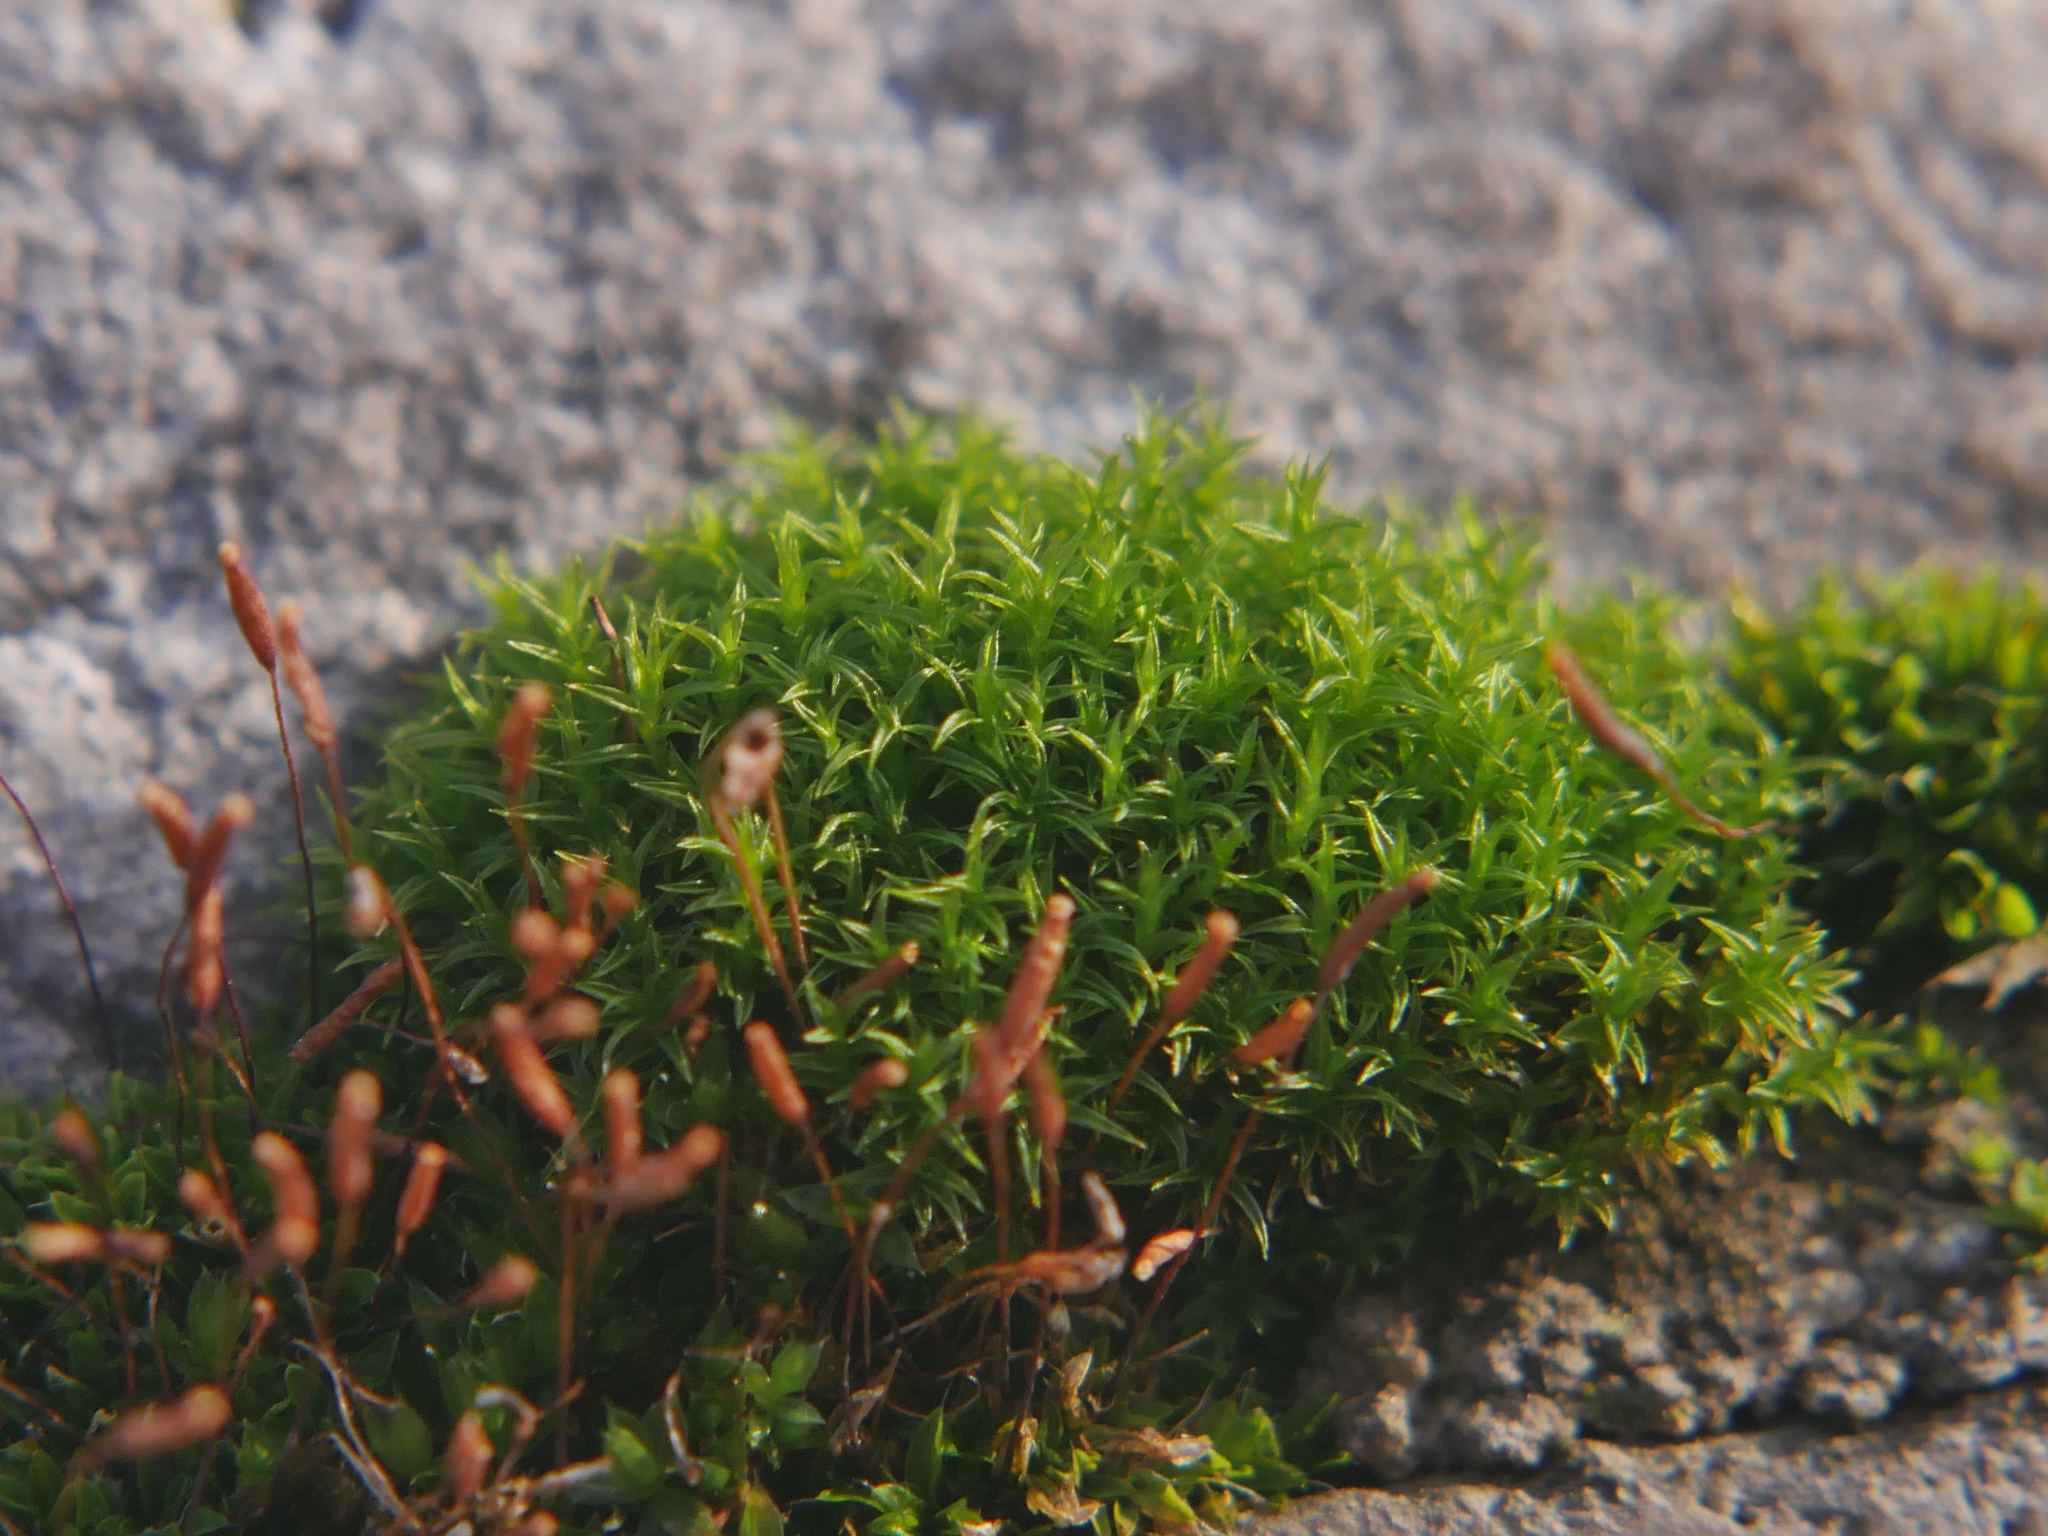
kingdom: Plantae
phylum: Bryophyta
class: Bryopsida
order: Dicranales
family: Ditrichaceae
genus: Ceratodon
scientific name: Ceratodon purpureus
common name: Redshank
